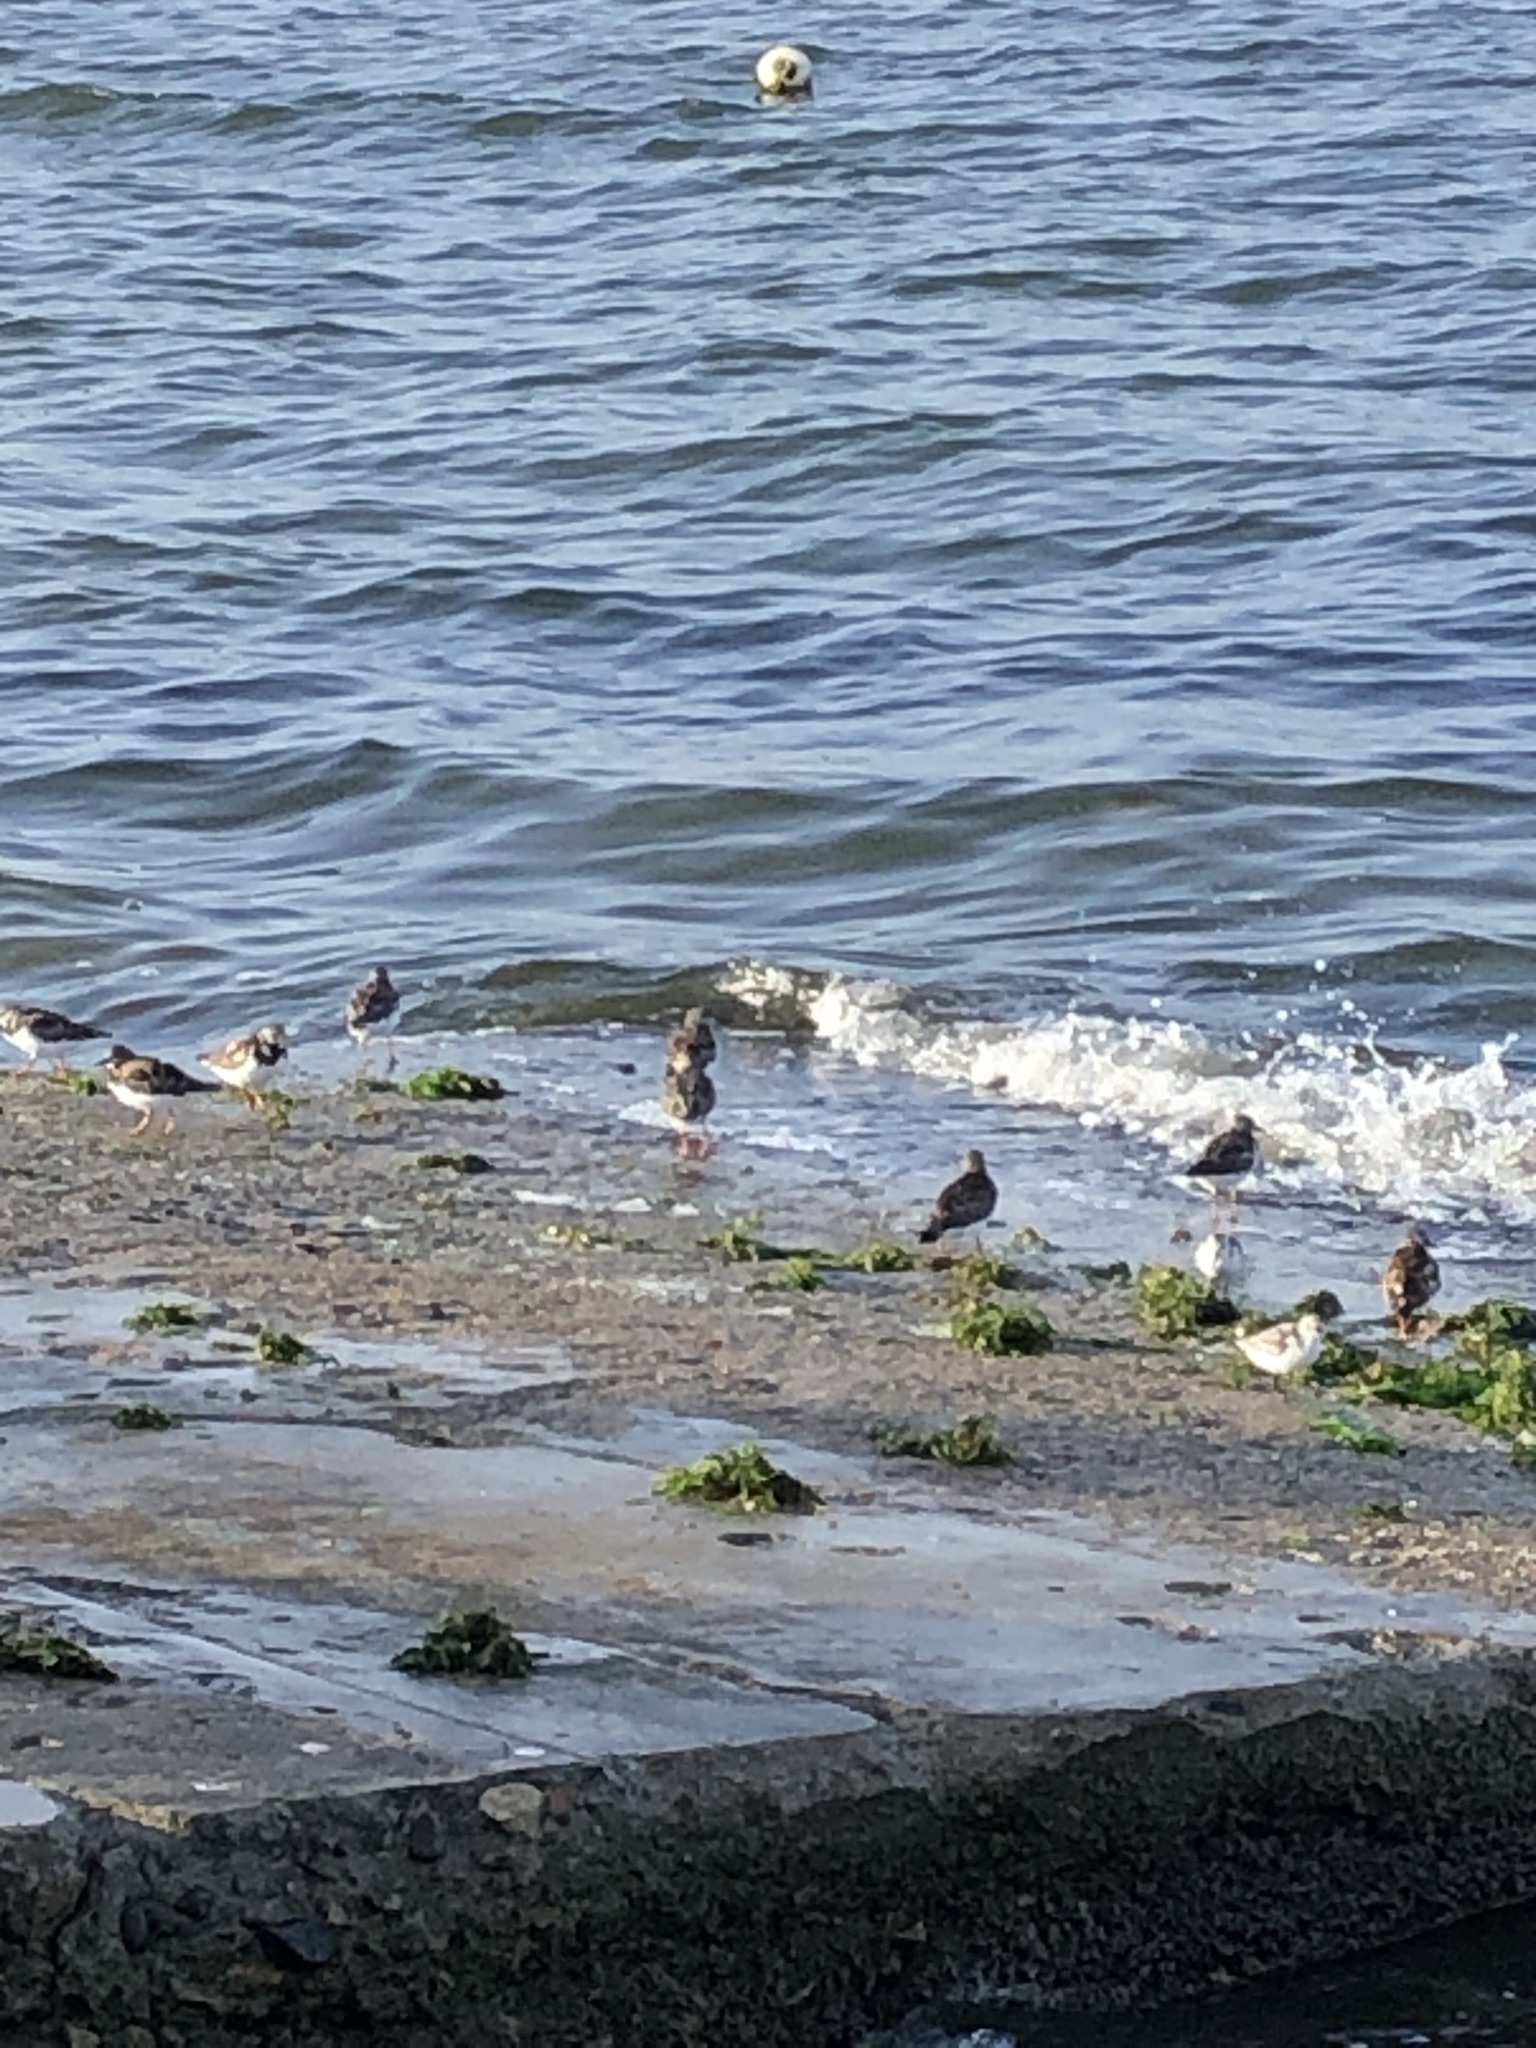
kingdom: Animalia
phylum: Chordata
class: Aves
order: Charadriiformes
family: Scolopacidae
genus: Arenaria
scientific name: Arenaria interpres
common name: Ruddy turnstone
